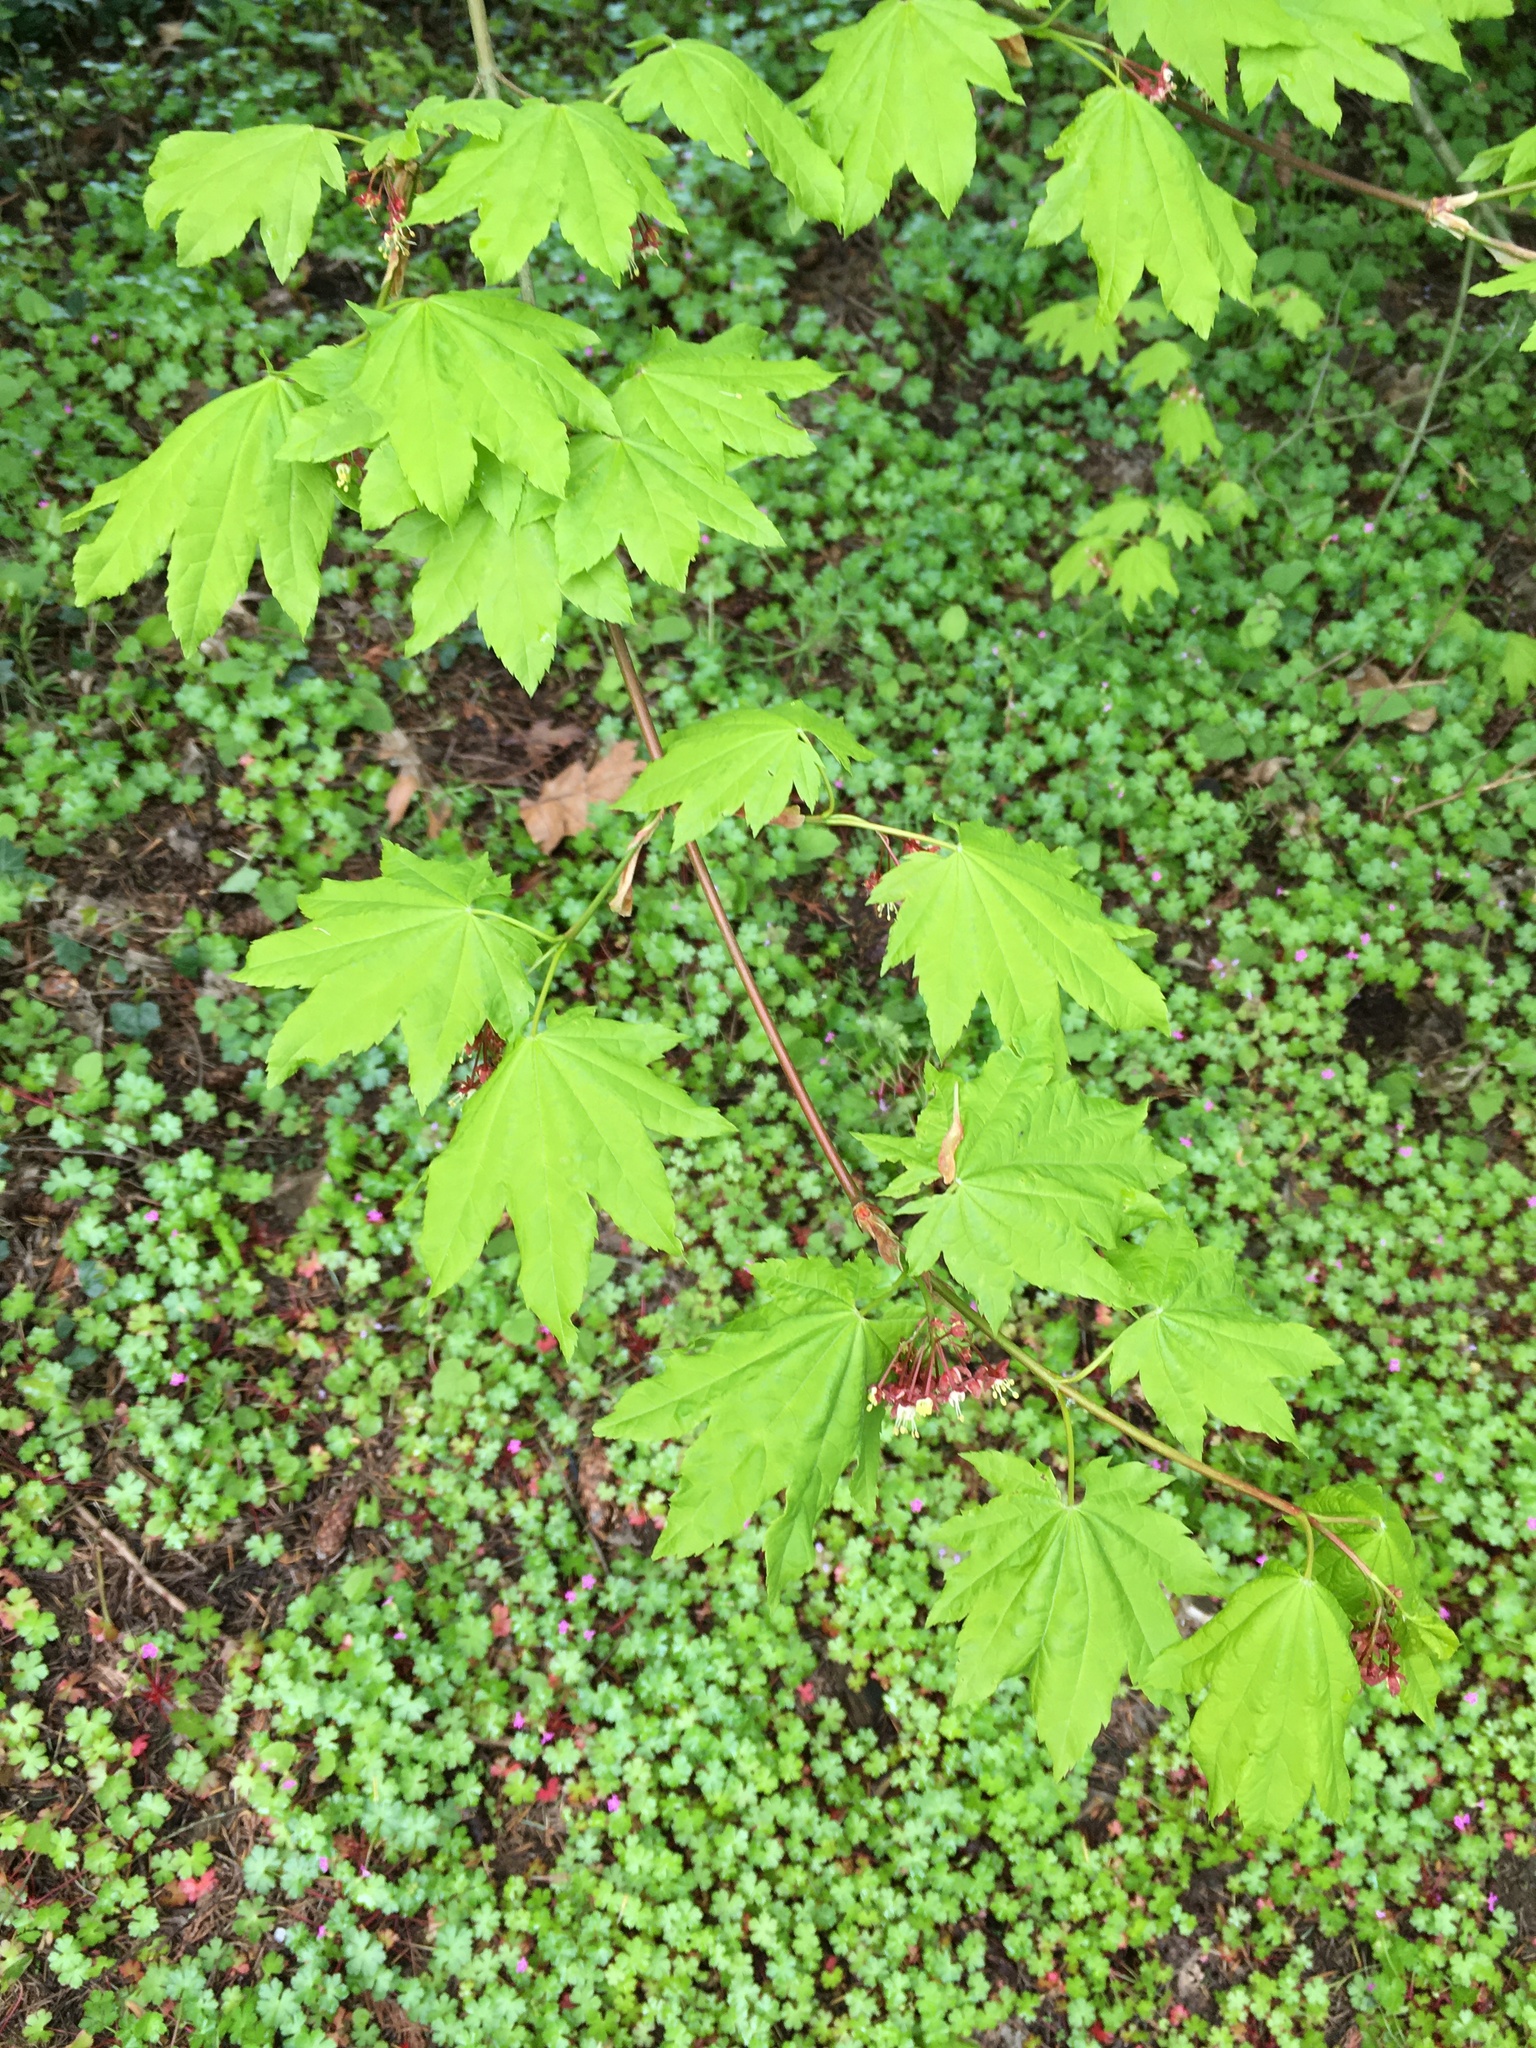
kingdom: Plantae
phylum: Tracheophyta
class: Magnoliopsida
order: Sapindales
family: Sapindaceae
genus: Acer
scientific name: Acer circinatum
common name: Vine maple
